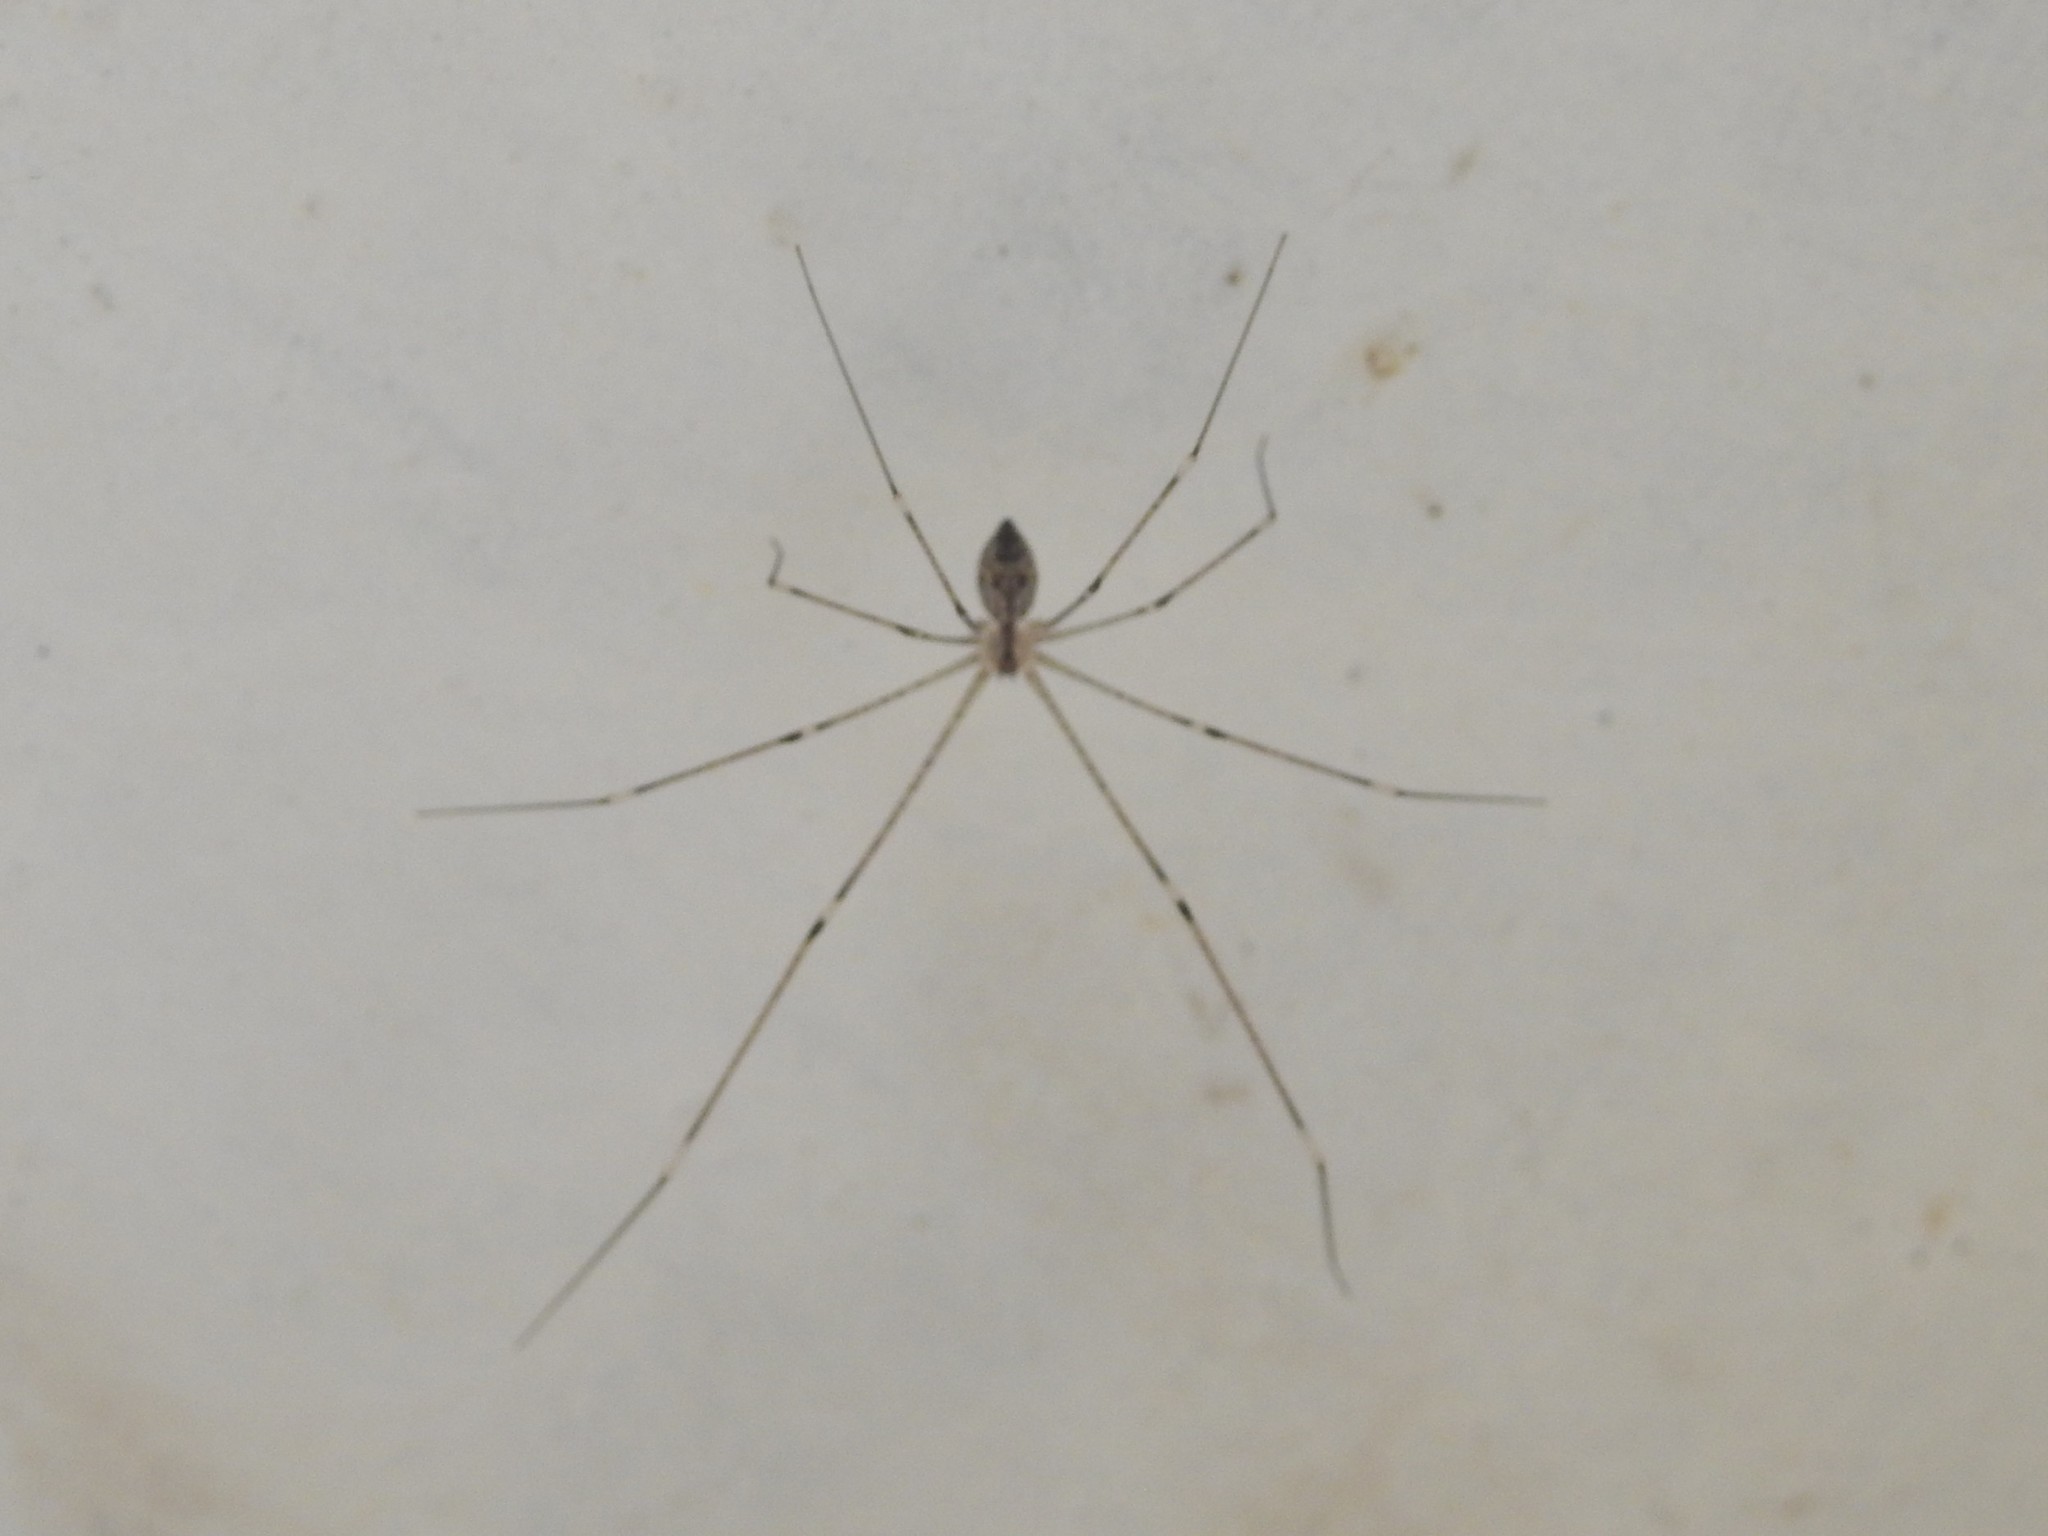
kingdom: Animalia
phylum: Arthropoda
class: Arachnida
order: Araneae
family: Pholcidae
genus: Crossopriza
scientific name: Crossopriza lyoni
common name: Cellar spiders
